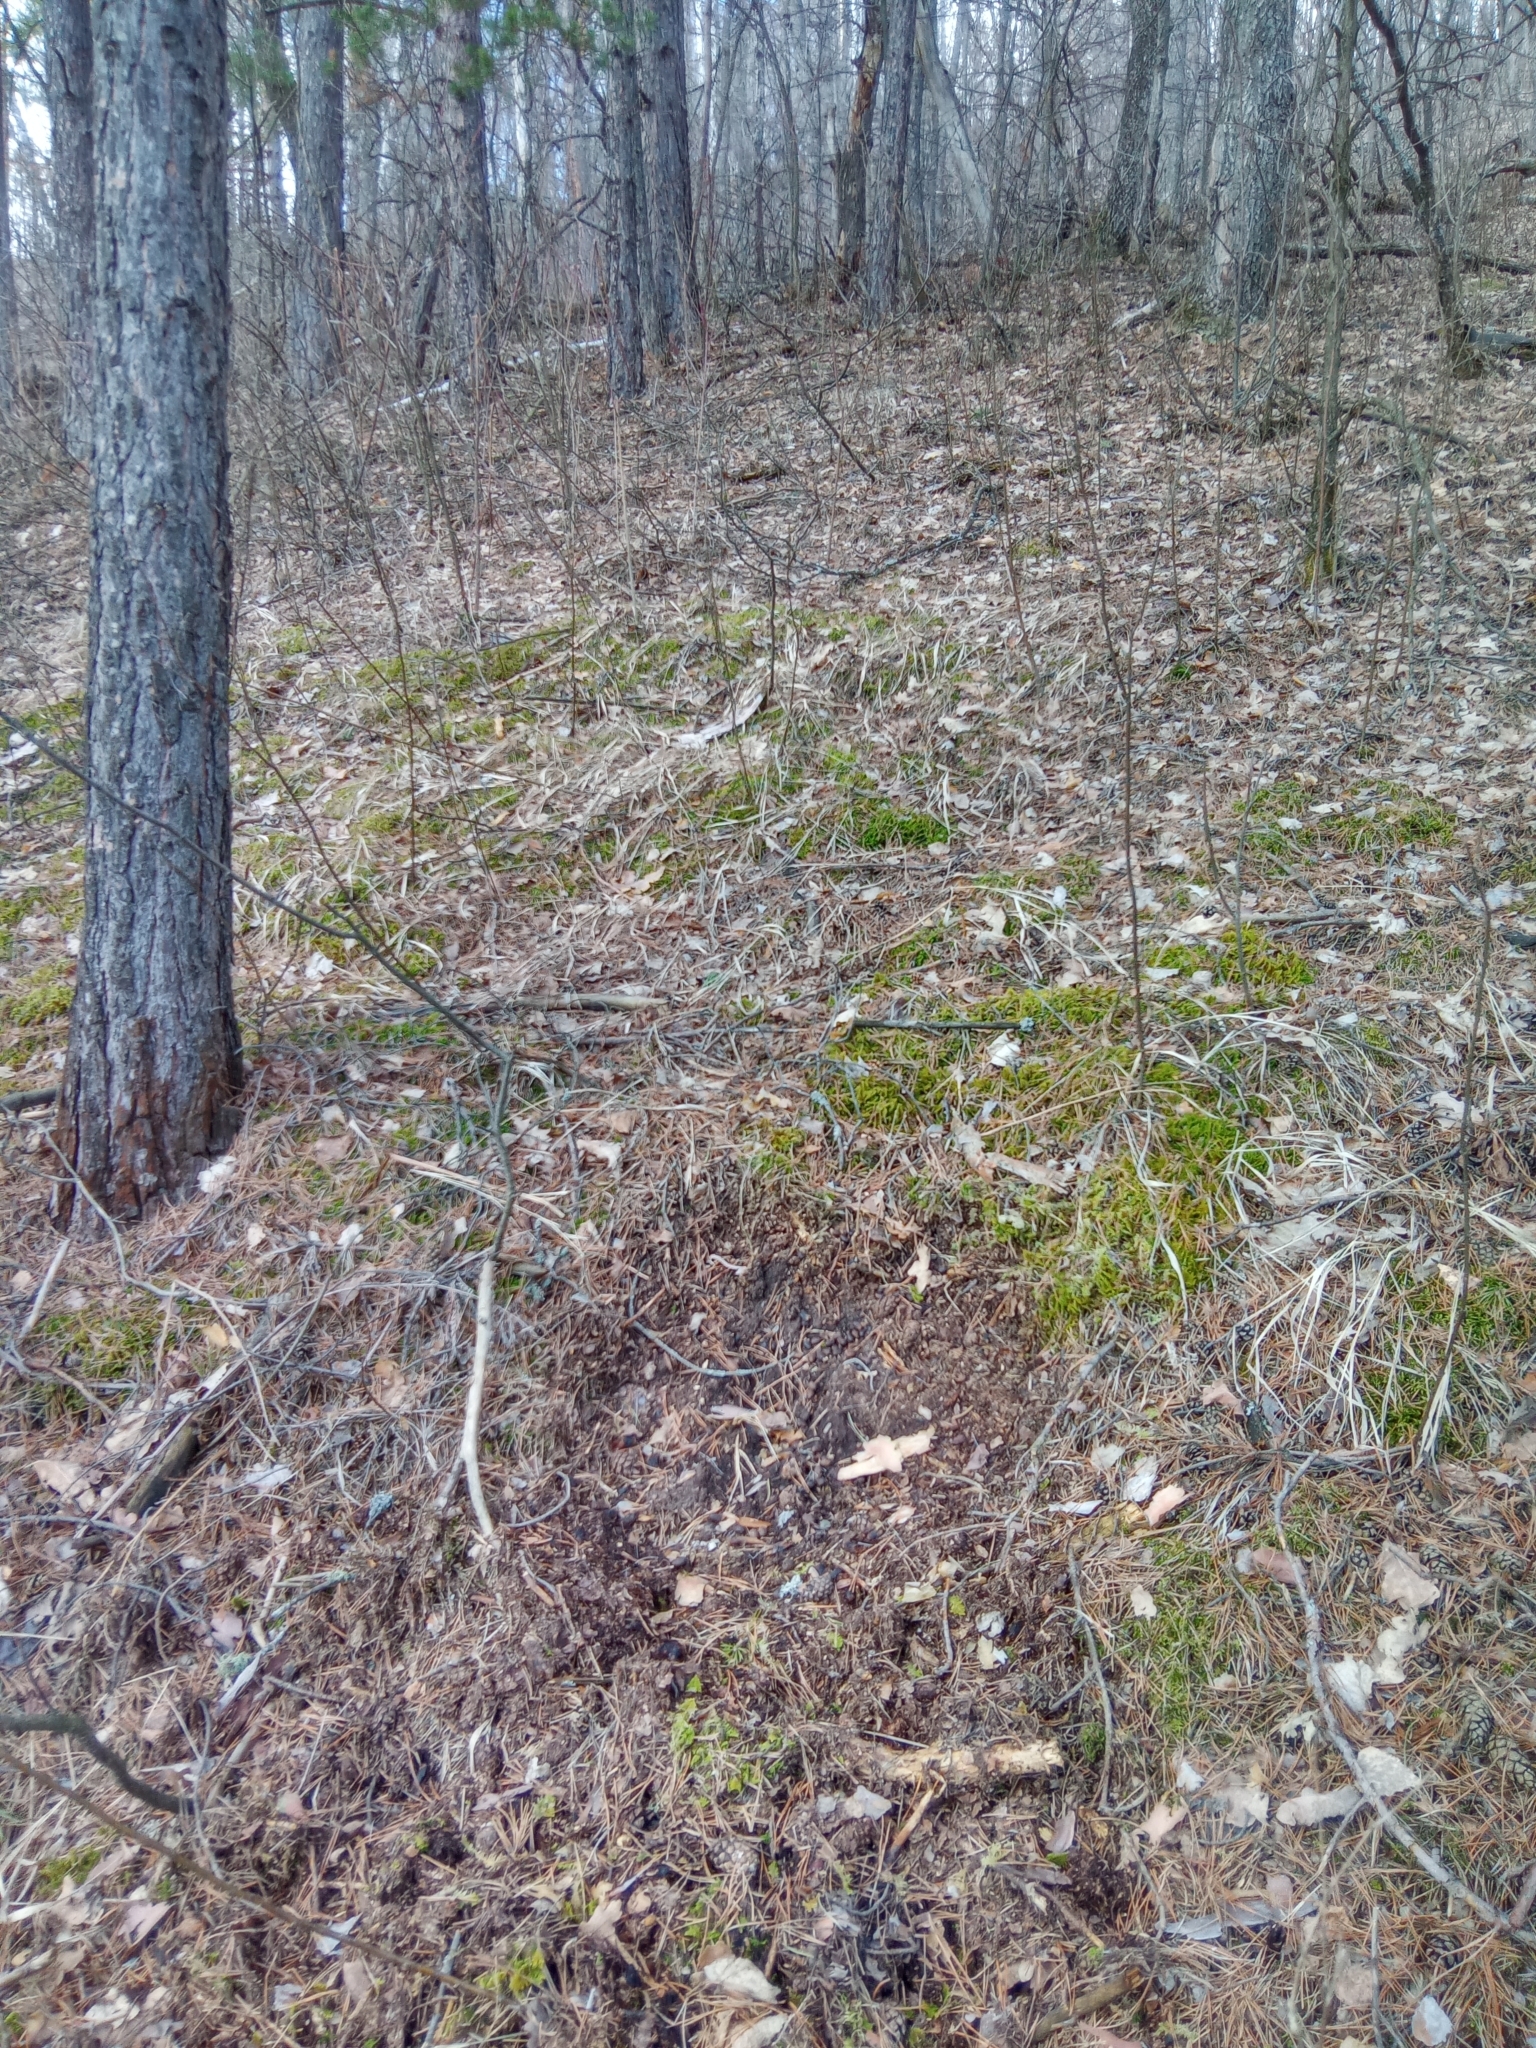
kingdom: Animalia
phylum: Chordata
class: Mammalia
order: Artiodactyla
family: Cervidae
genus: Capreolus
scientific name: Capreolus pygargus
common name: Siberian roe
